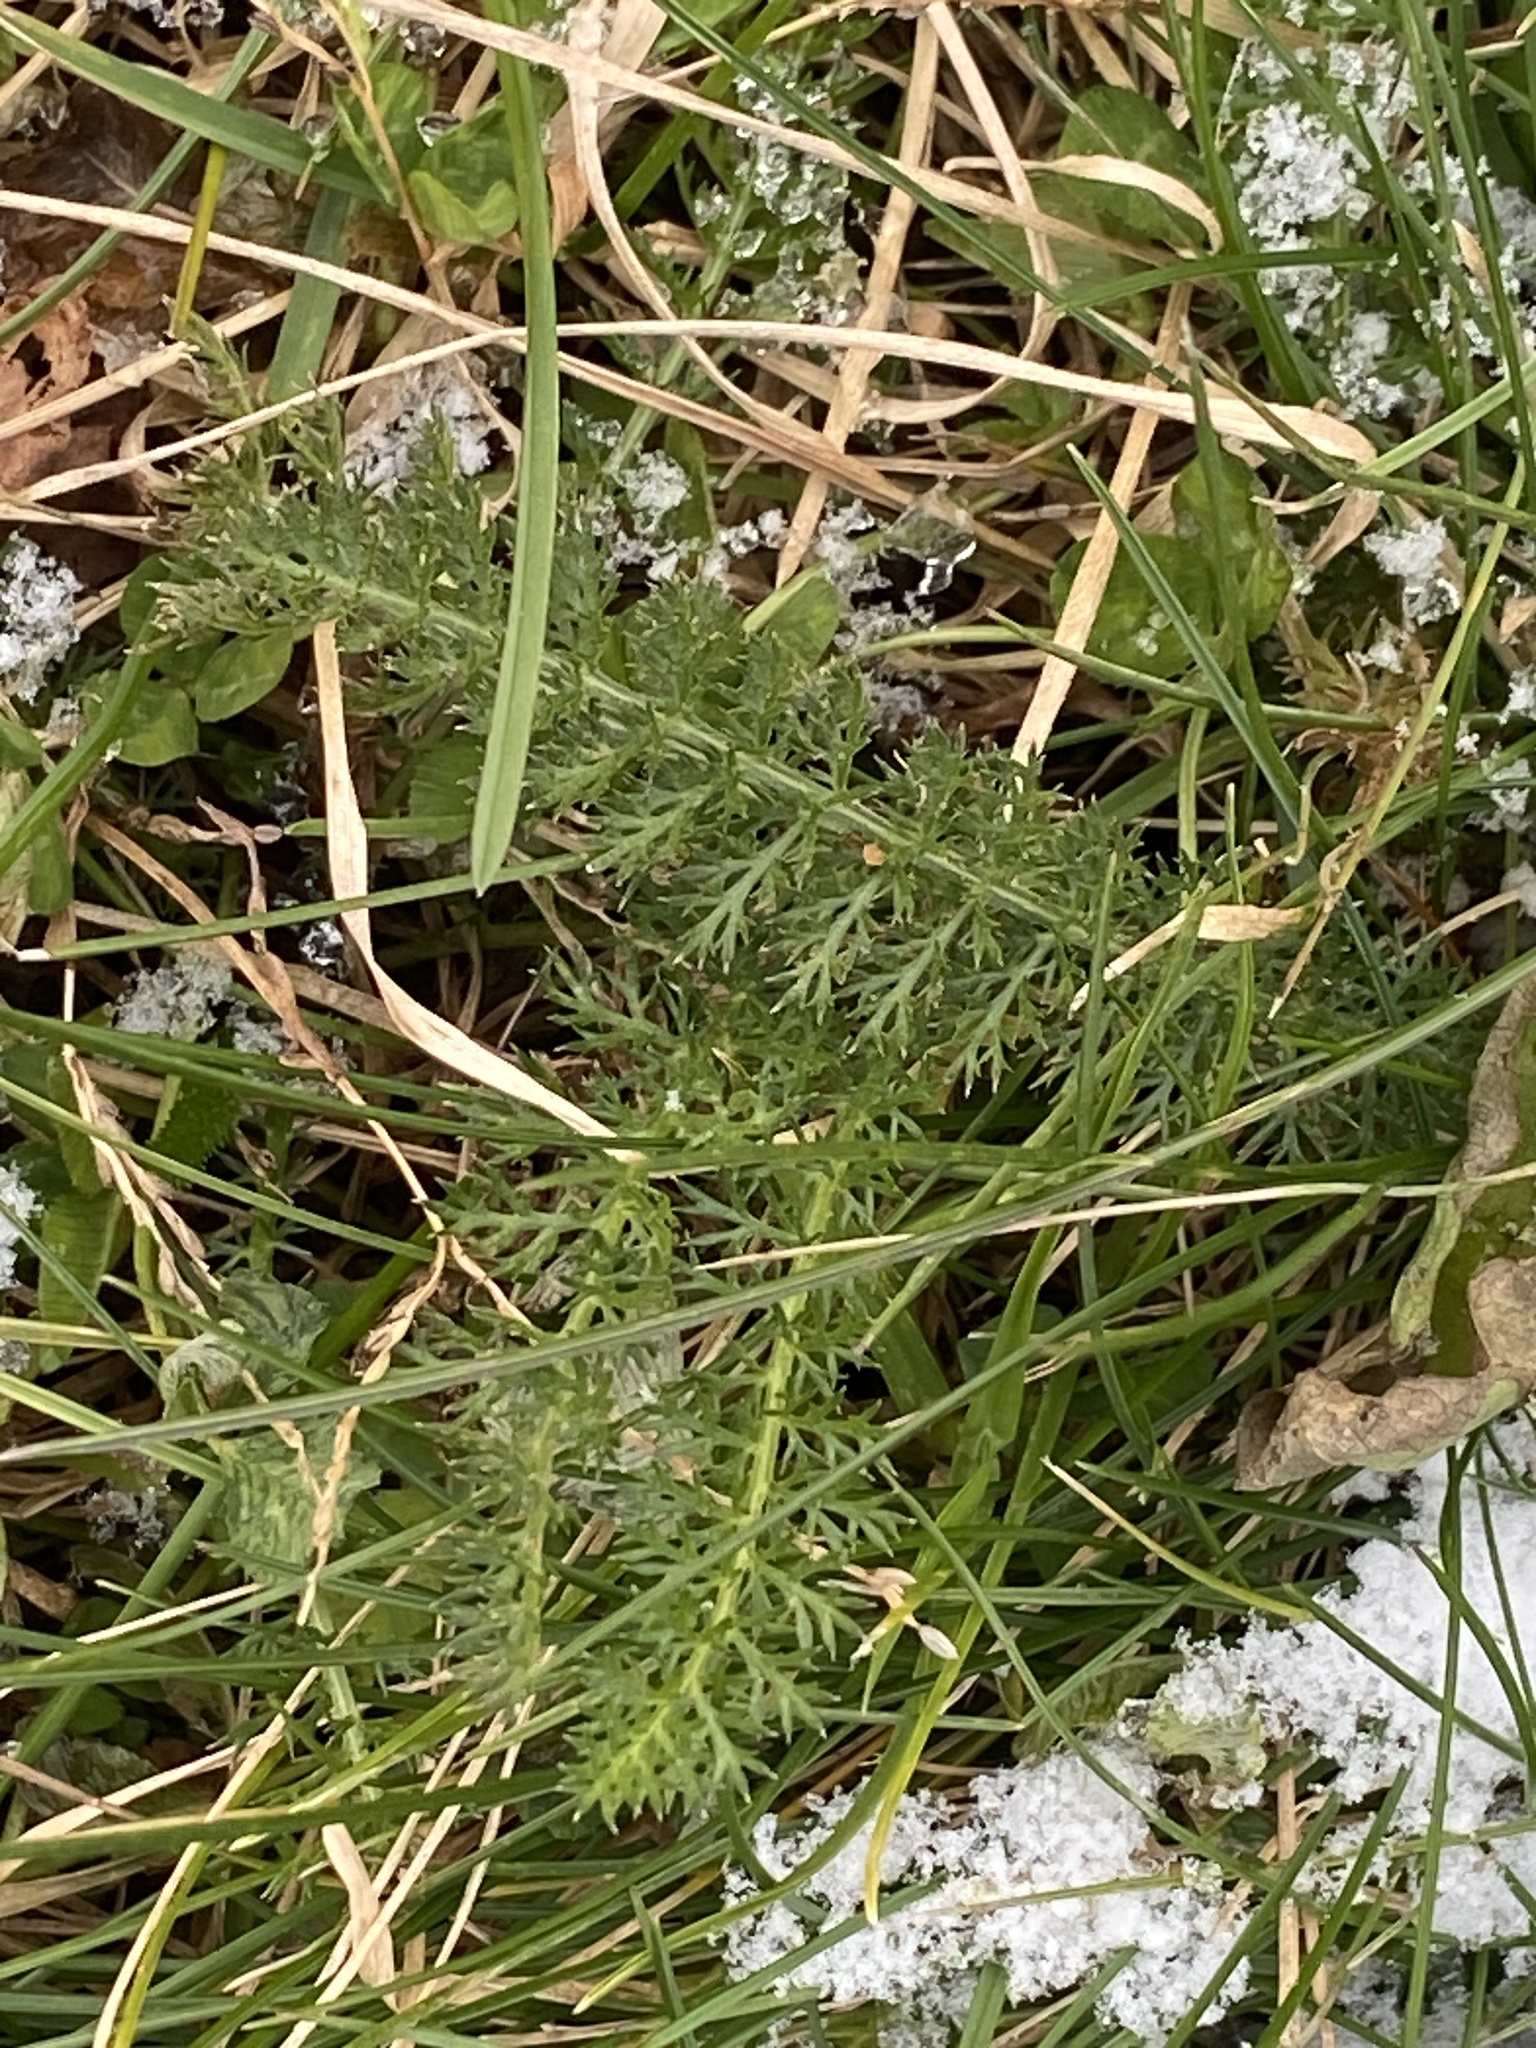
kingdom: Plantae
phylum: Tracheophyta
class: Magnoliopsida
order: Asterales
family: Asteraceae
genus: Achillea
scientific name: Achillea millefolium
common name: Yarrow
